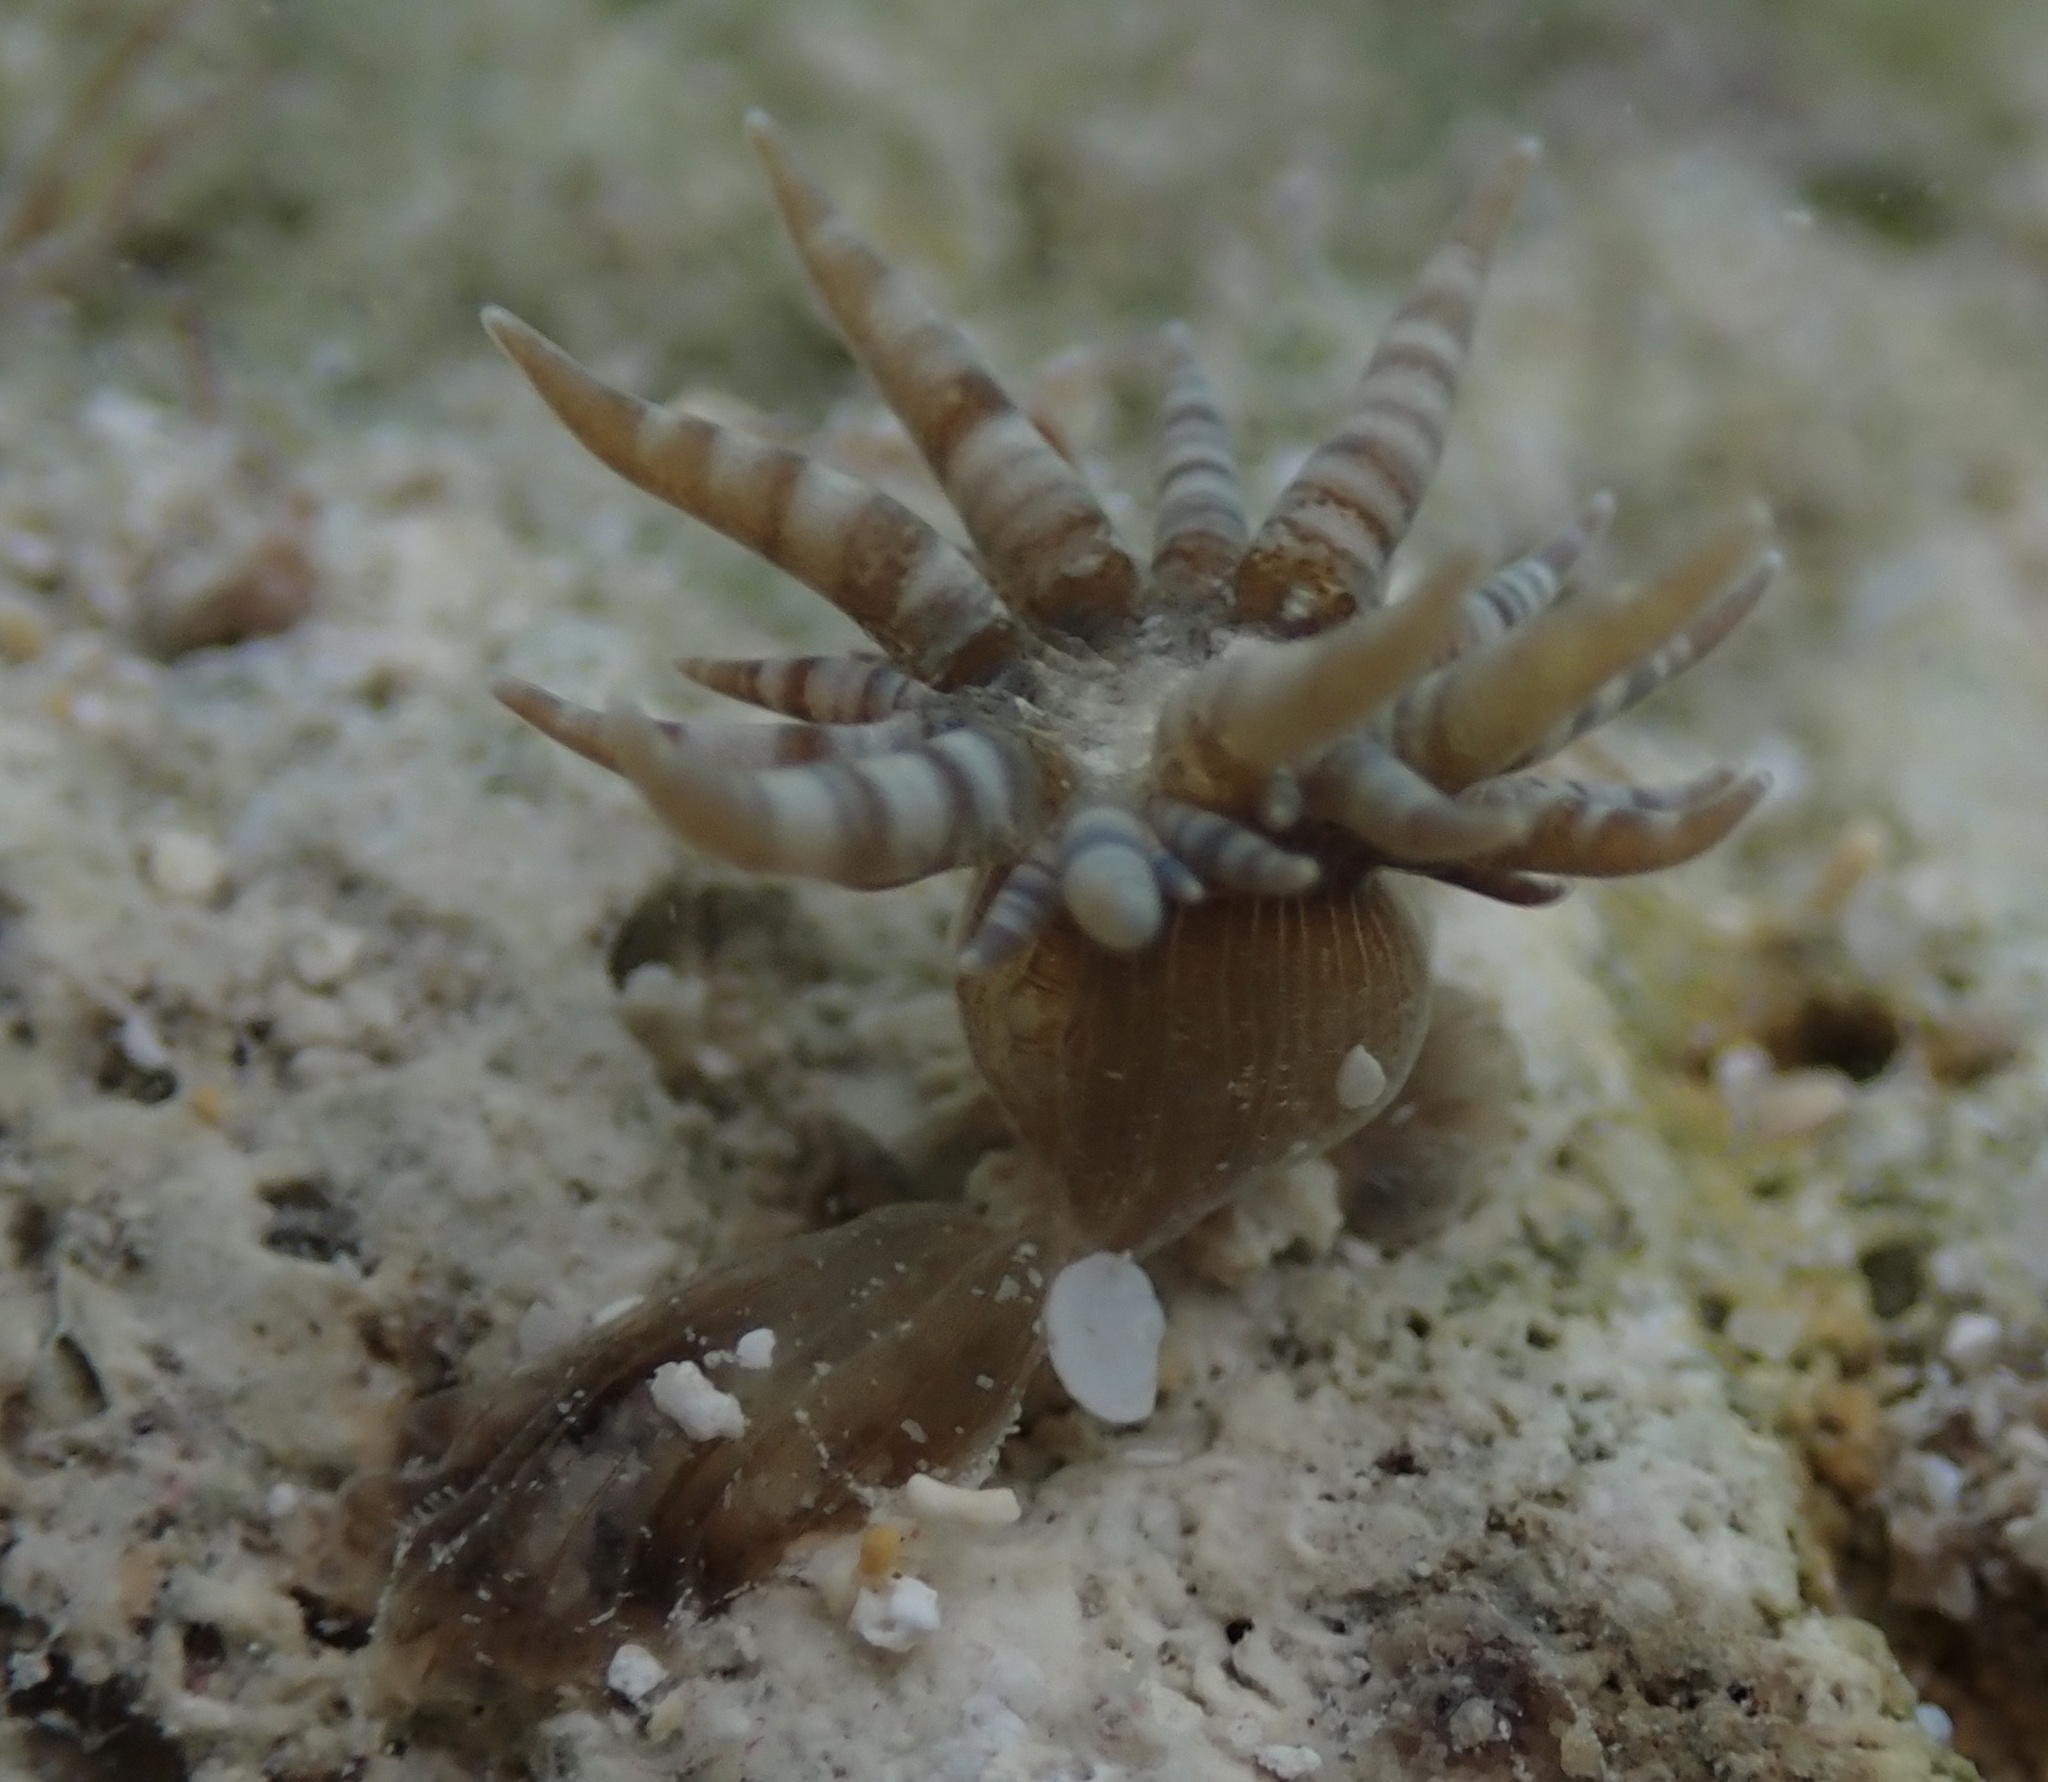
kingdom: Animalia
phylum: Cnidaria
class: Anthozoa
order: Actiniaria
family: Aiptasiidae
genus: Exaiptasia
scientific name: Exaiptasia diaphana
